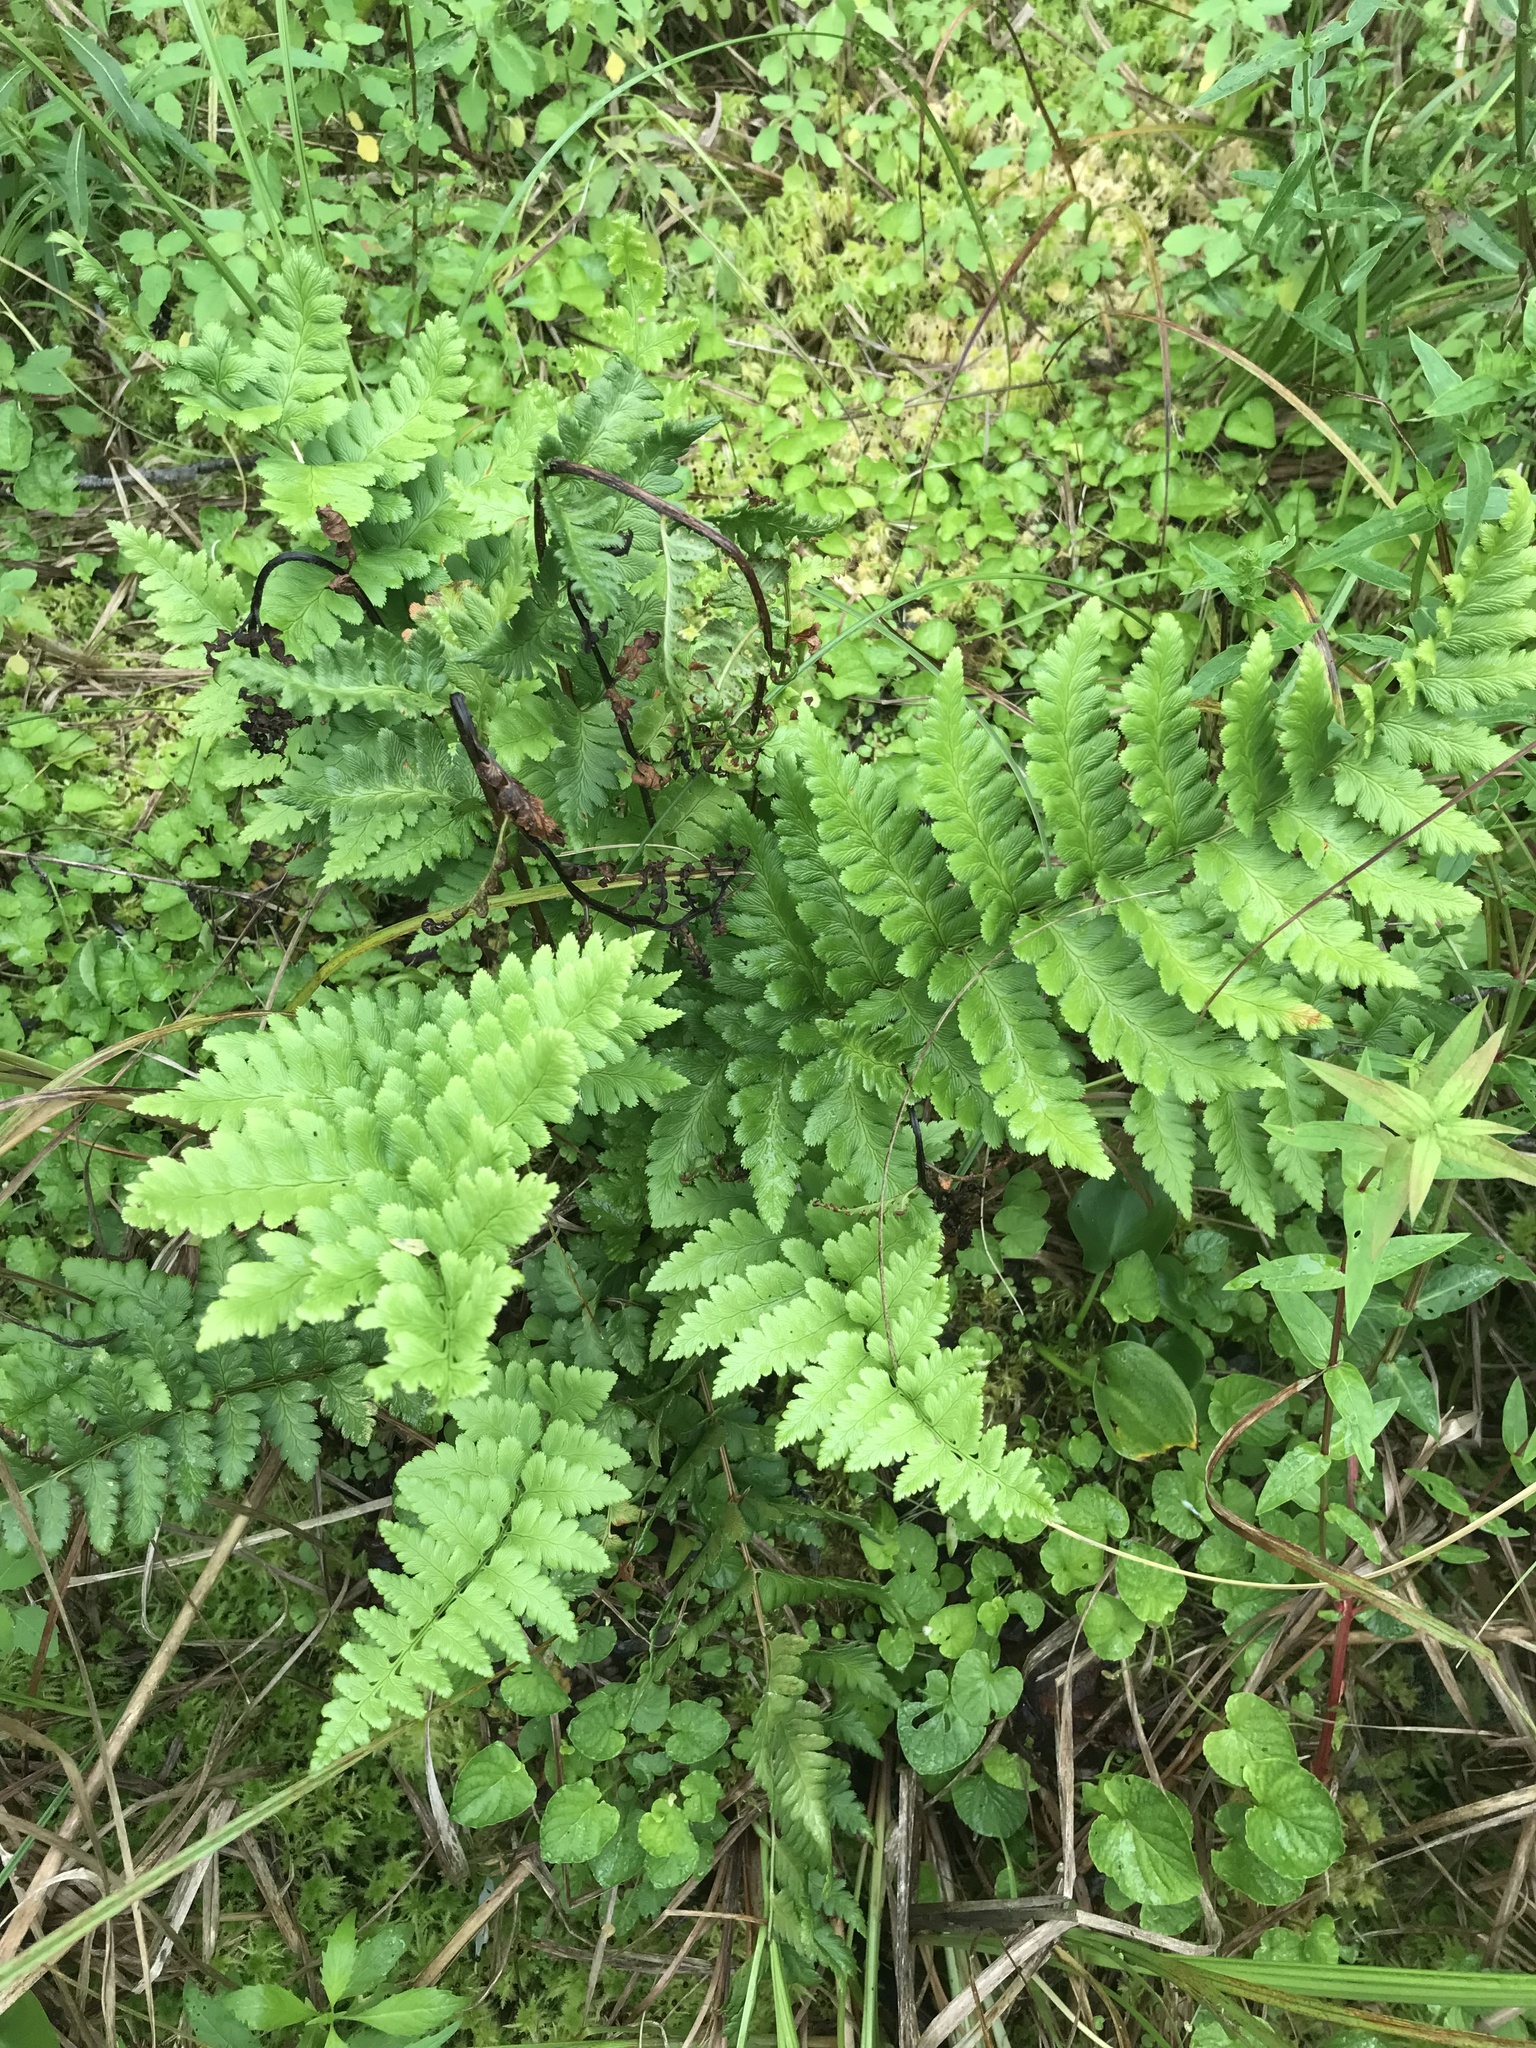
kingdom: Plantae
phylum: Tracheophyta
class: Polypodiopsida
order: Polypodiales
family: Dryopteridaceae
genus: Dryopteris
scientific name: Dryopteris cristata
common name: Crested wood fern
